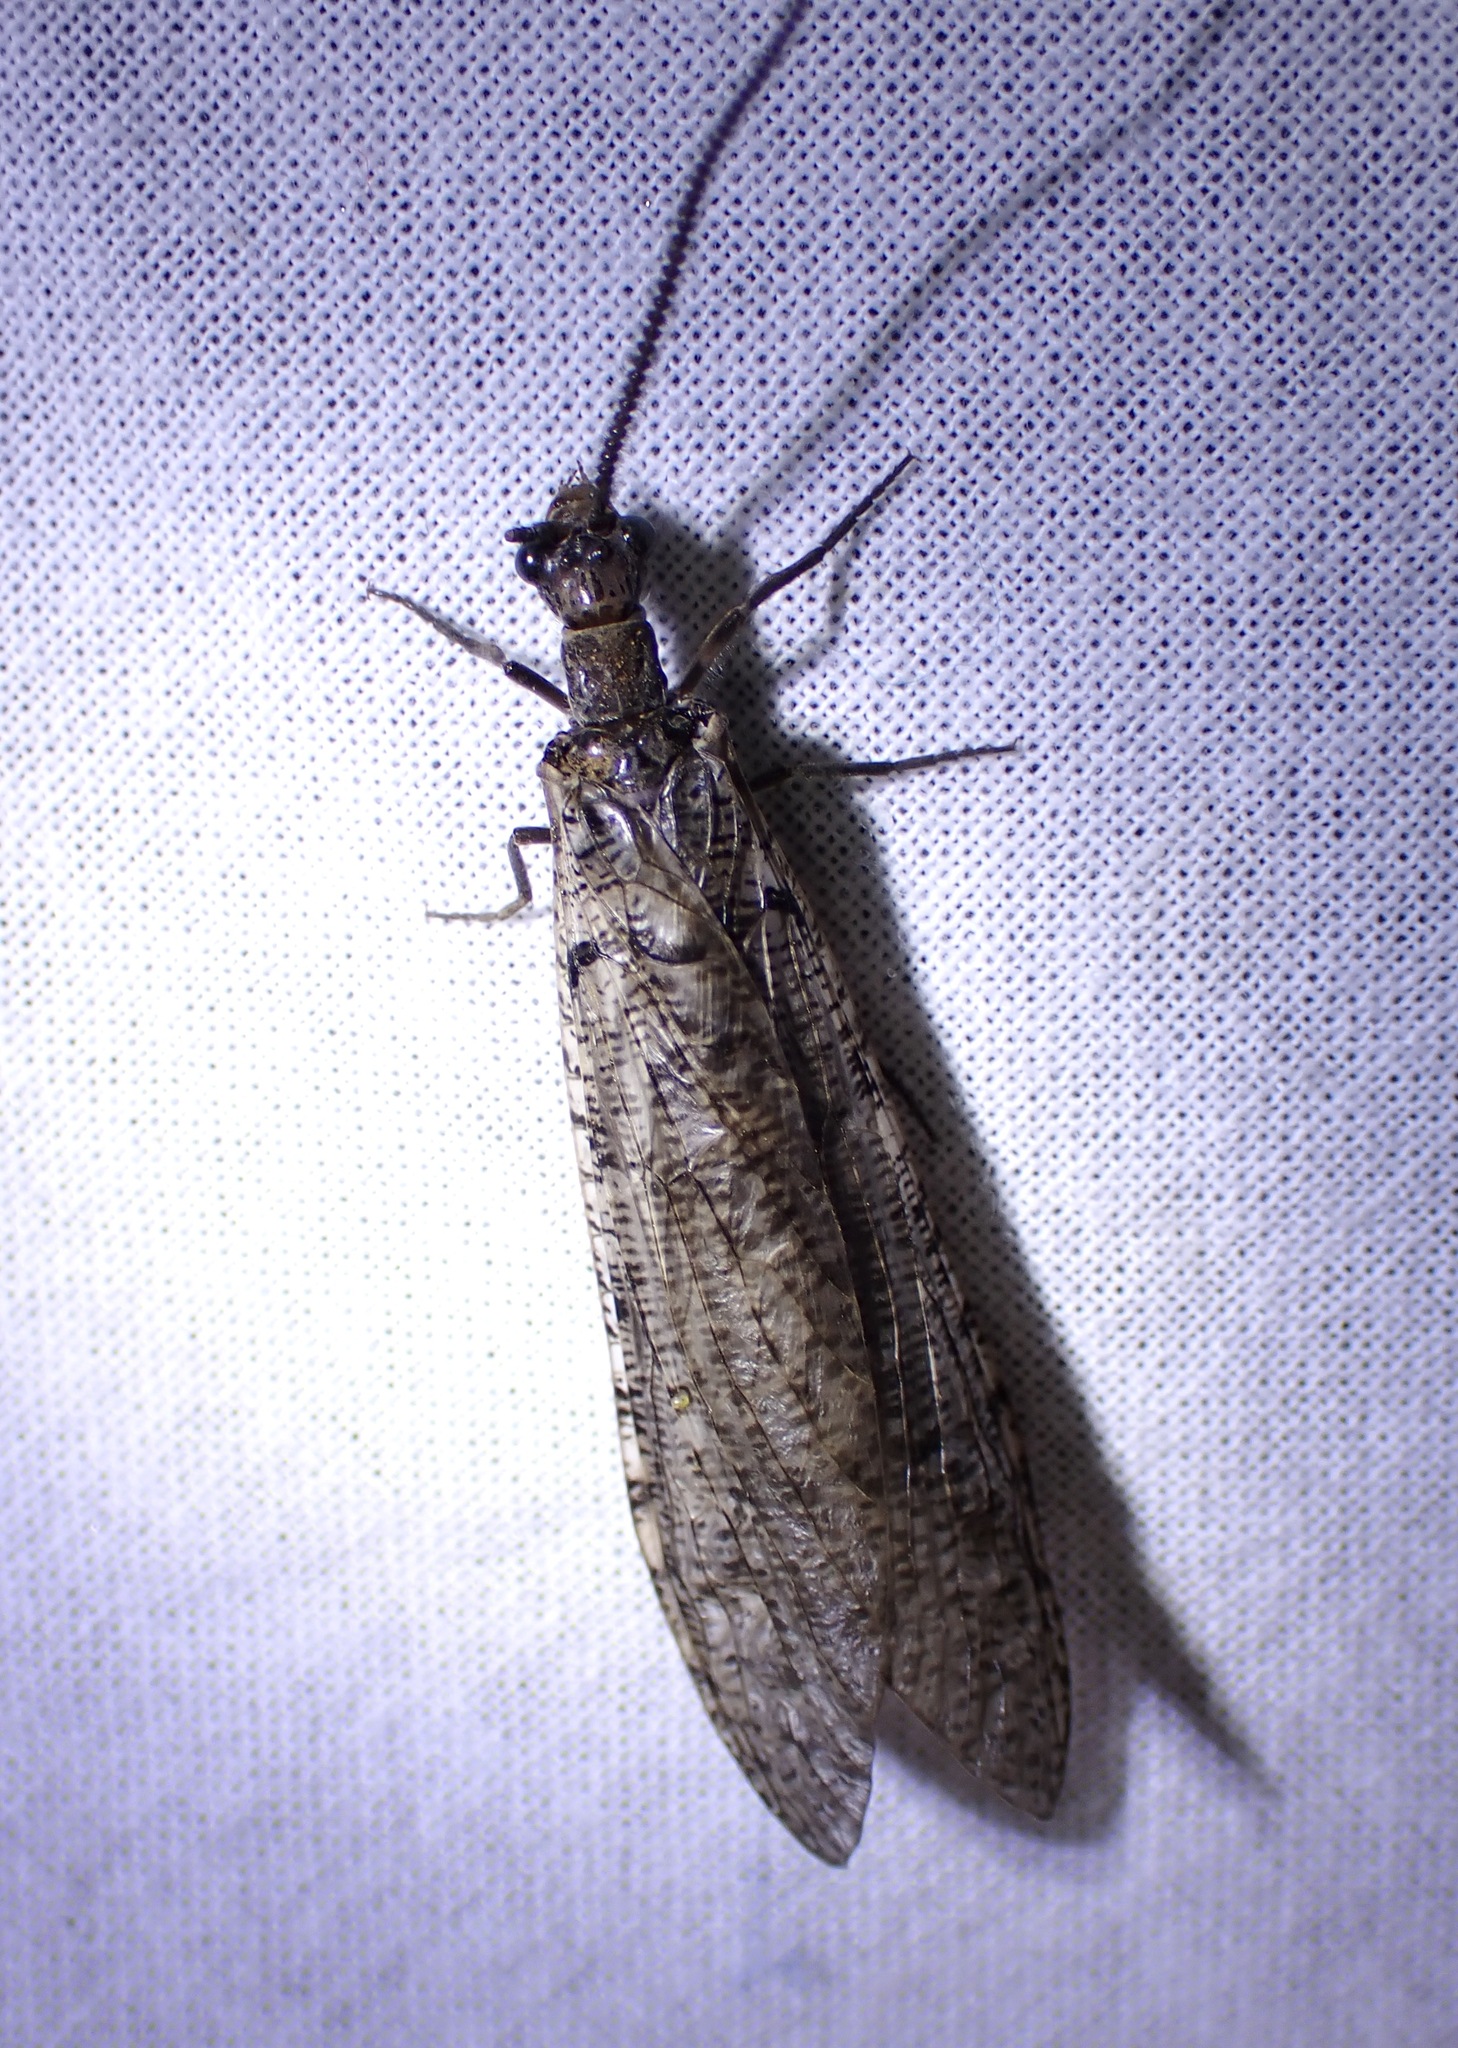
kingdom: Animalia
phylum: Arthropoda
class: Insecta
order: Megaloptera
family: Corydalidae
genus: Neohermes
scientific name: Neohermes filicornis
